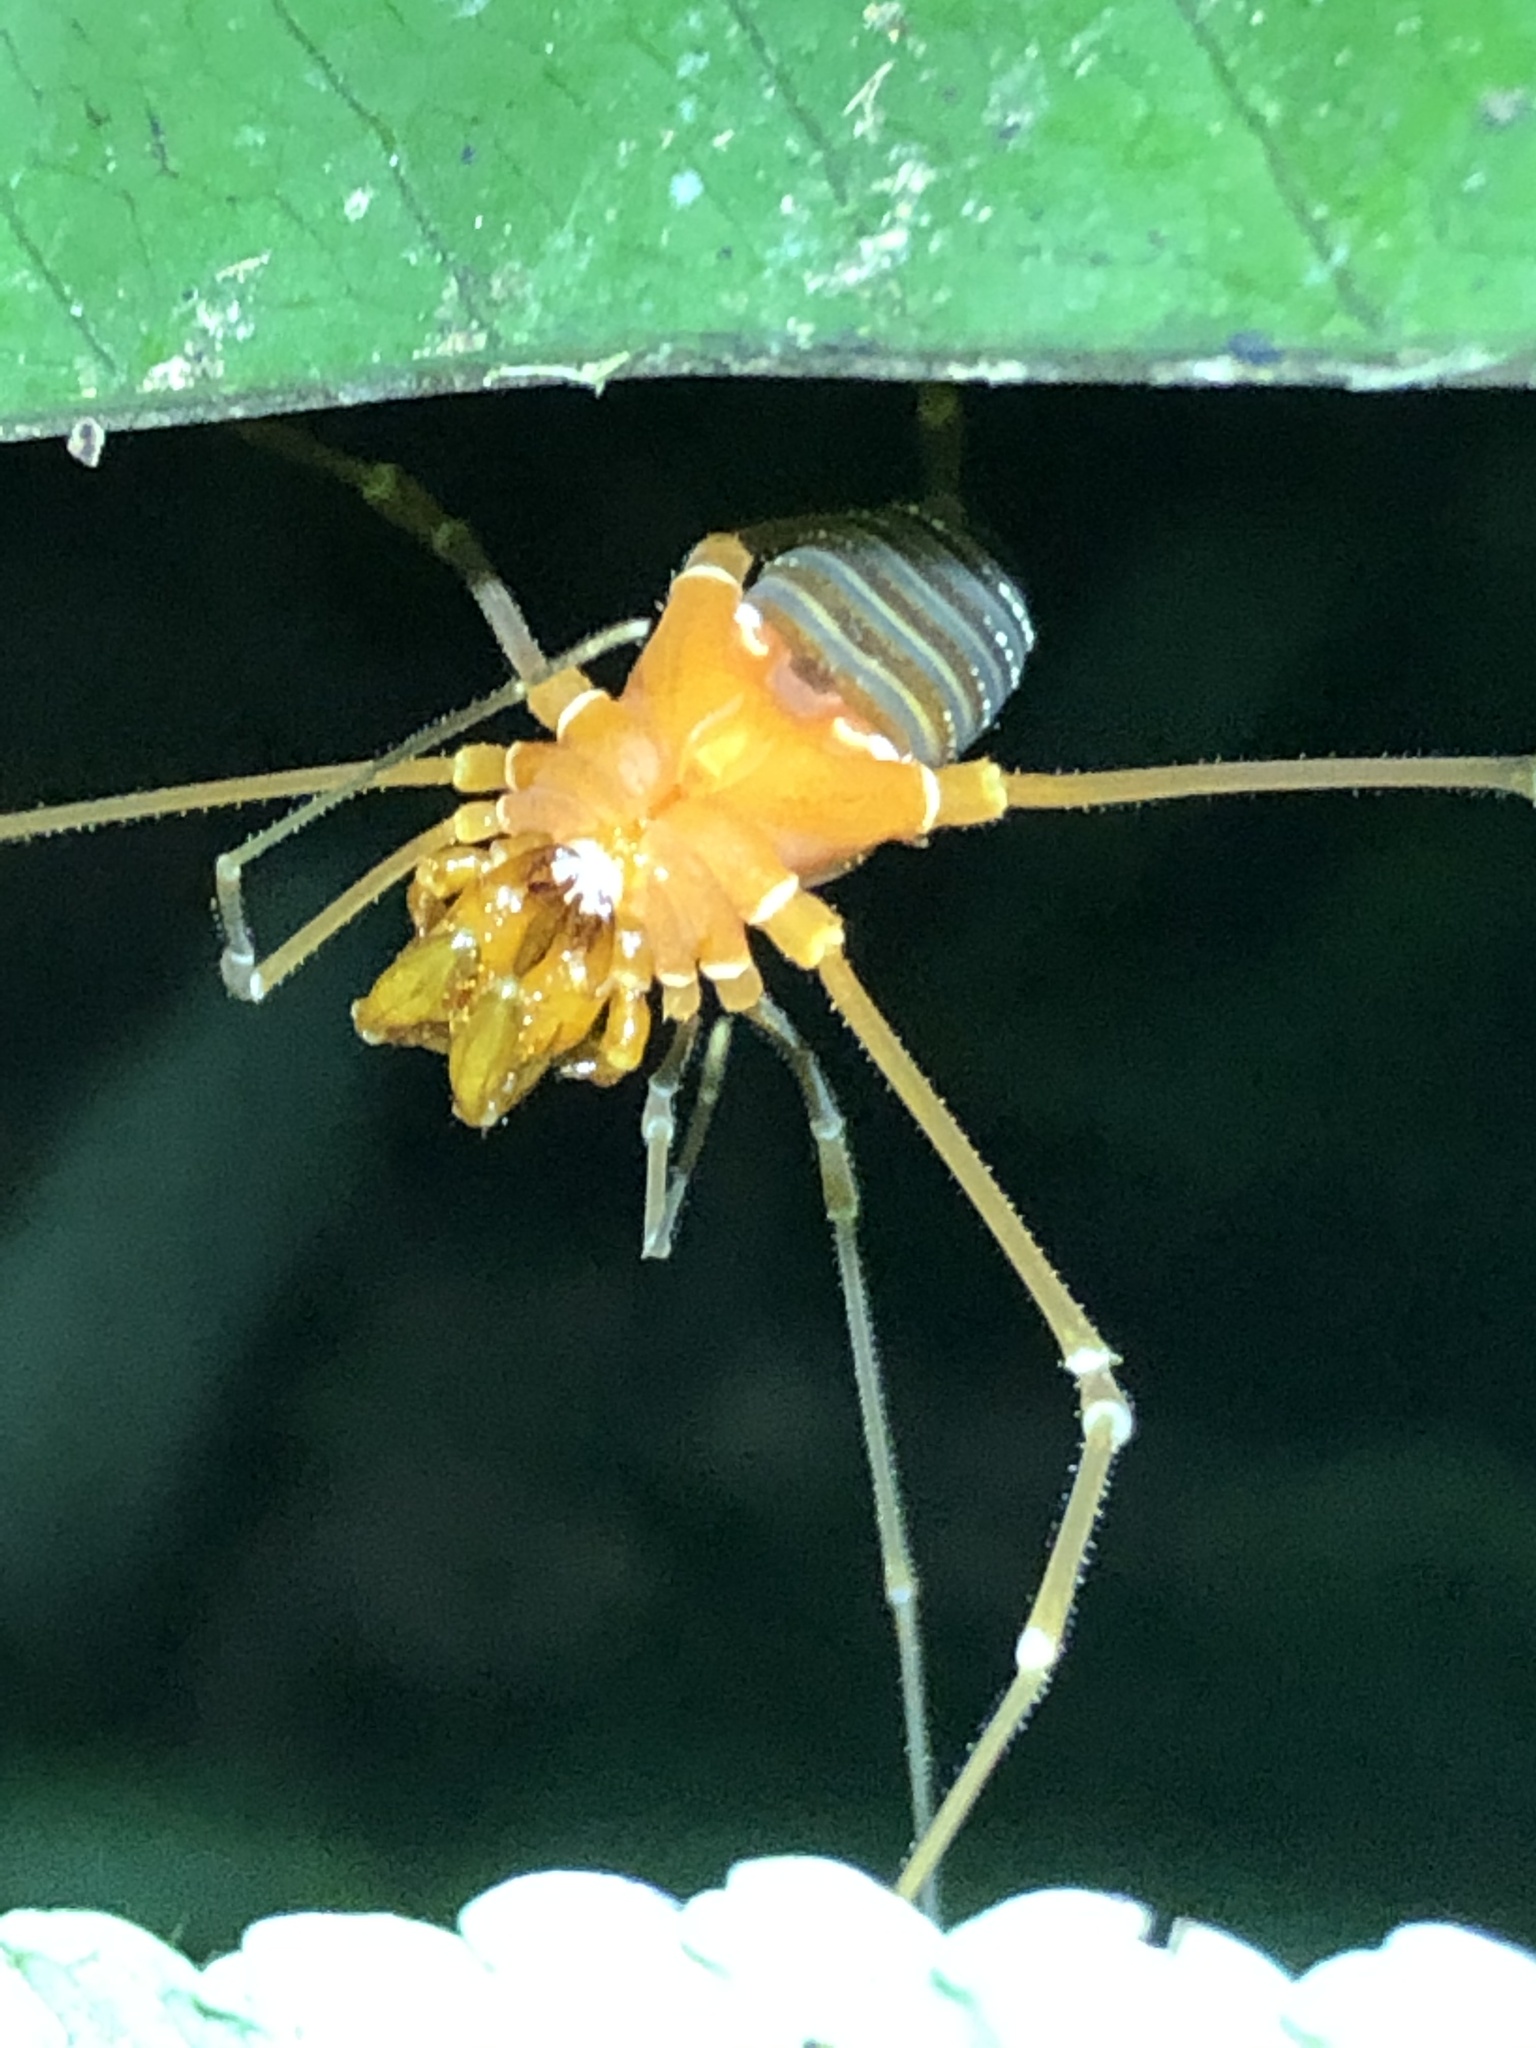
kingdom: Animalia
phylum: Arthropoda
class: Arachnida
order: Opiliones
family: Cranaidae
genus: Iquitosa
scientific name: Iquitosa poecilis
